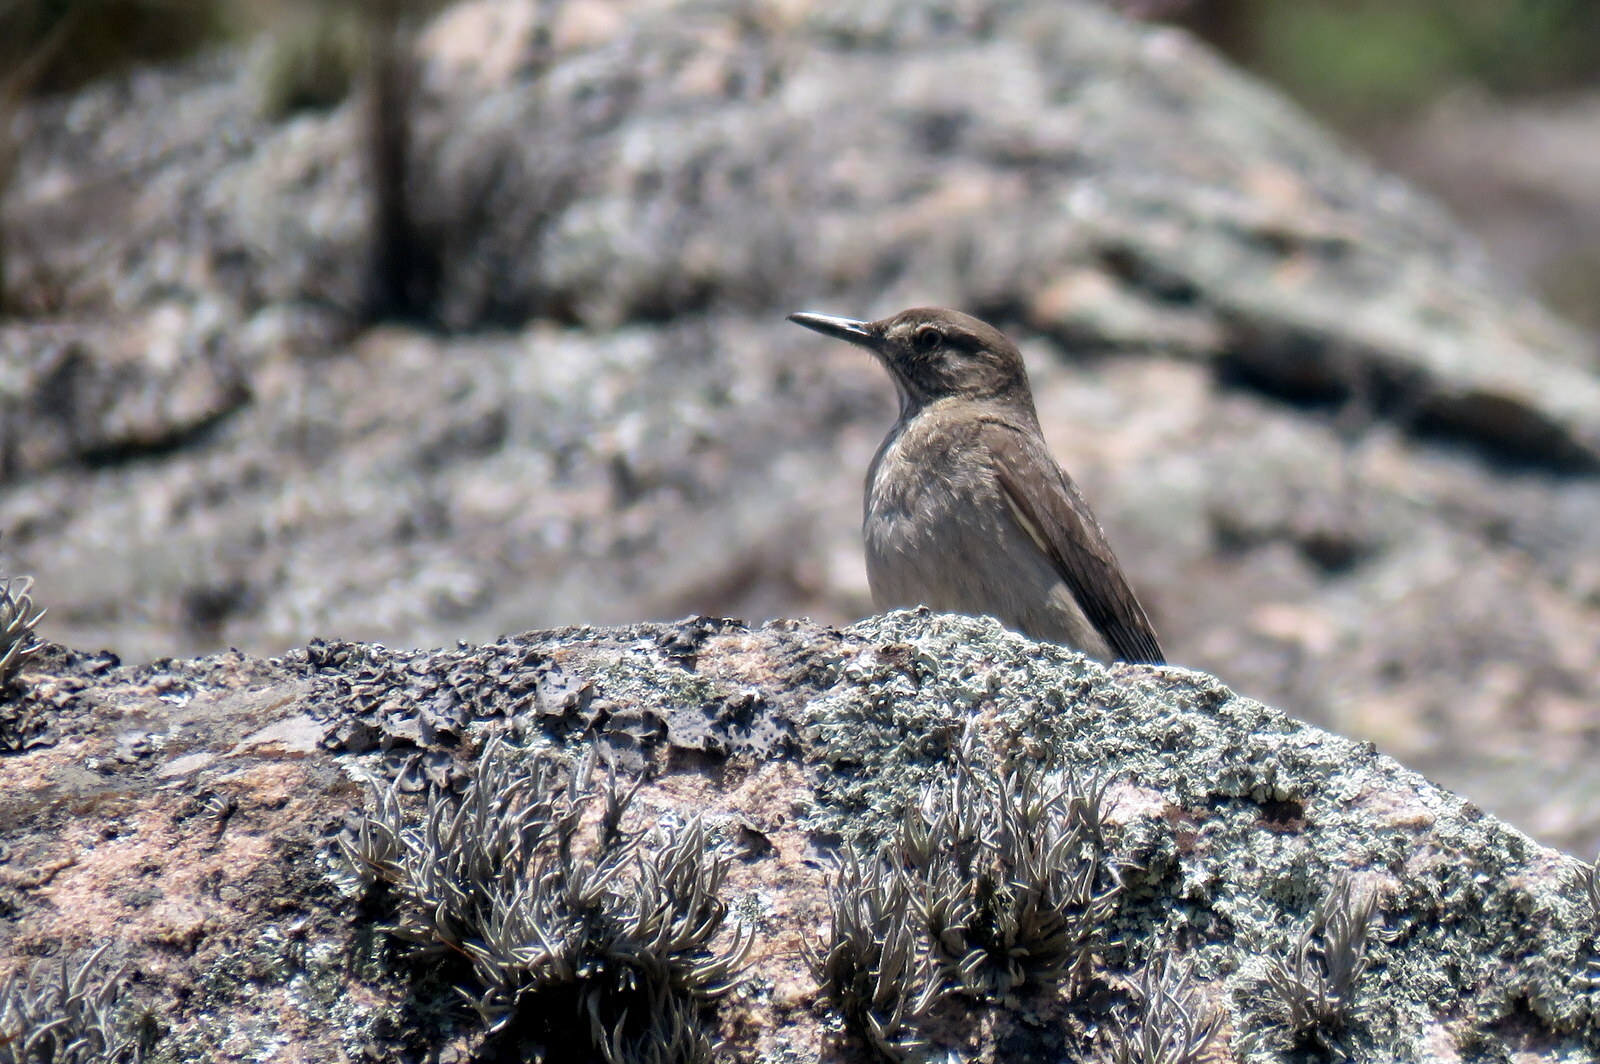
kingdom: Animalia
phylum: Chordata
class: Aves
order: Passeriformes
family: Tyrannidae
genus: Agriornis
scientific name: Agriornis montanus
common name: Black-billed shrike-tyrant
